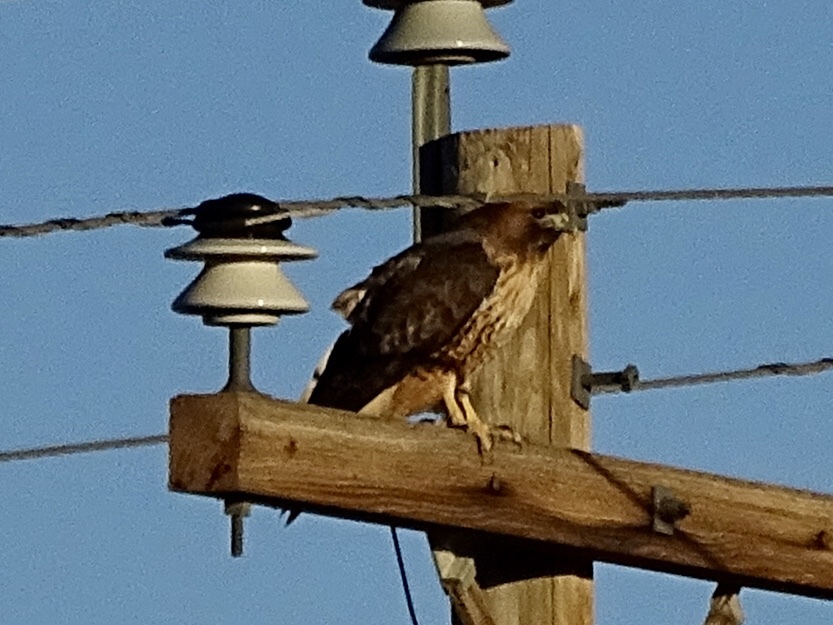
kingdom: Animalia
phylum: Chordata
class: Aves
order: Accipitriformes
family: Accipitridae
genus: Buteo
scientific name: Buteo jamaicensis
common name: Red-tailed hawk
